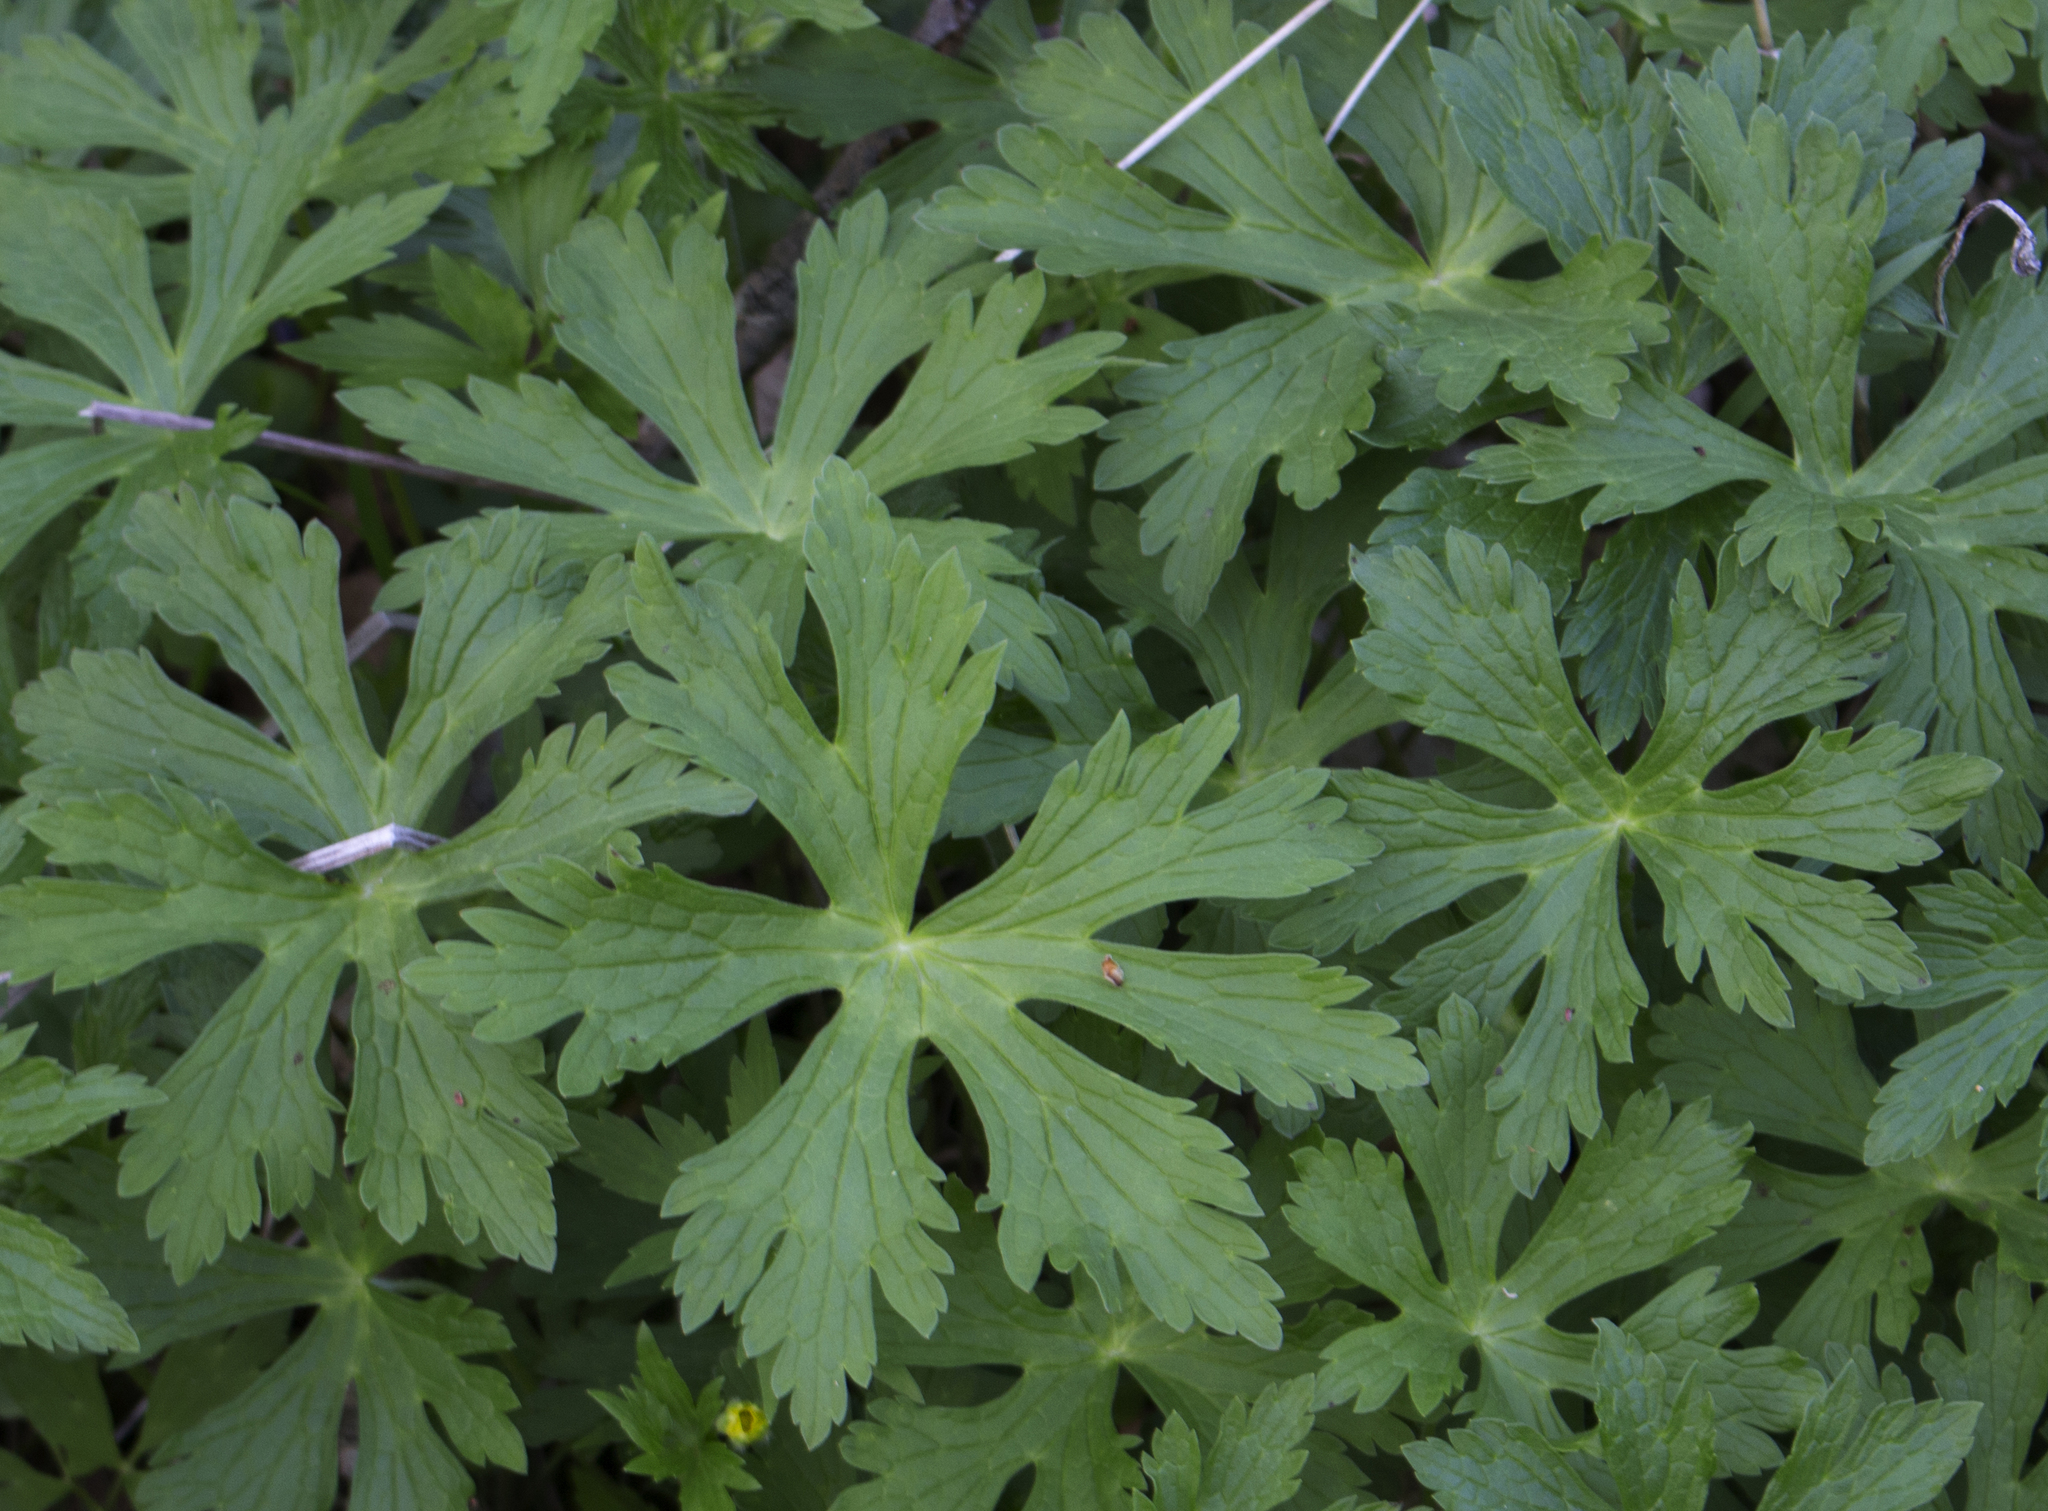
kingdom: Plantae
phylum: Tracheophyta
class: Magnoliopsida
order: Geraniales
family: Geraniaceae
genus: Geranium
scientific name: Geranium maculatum
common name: Spotted geranium
